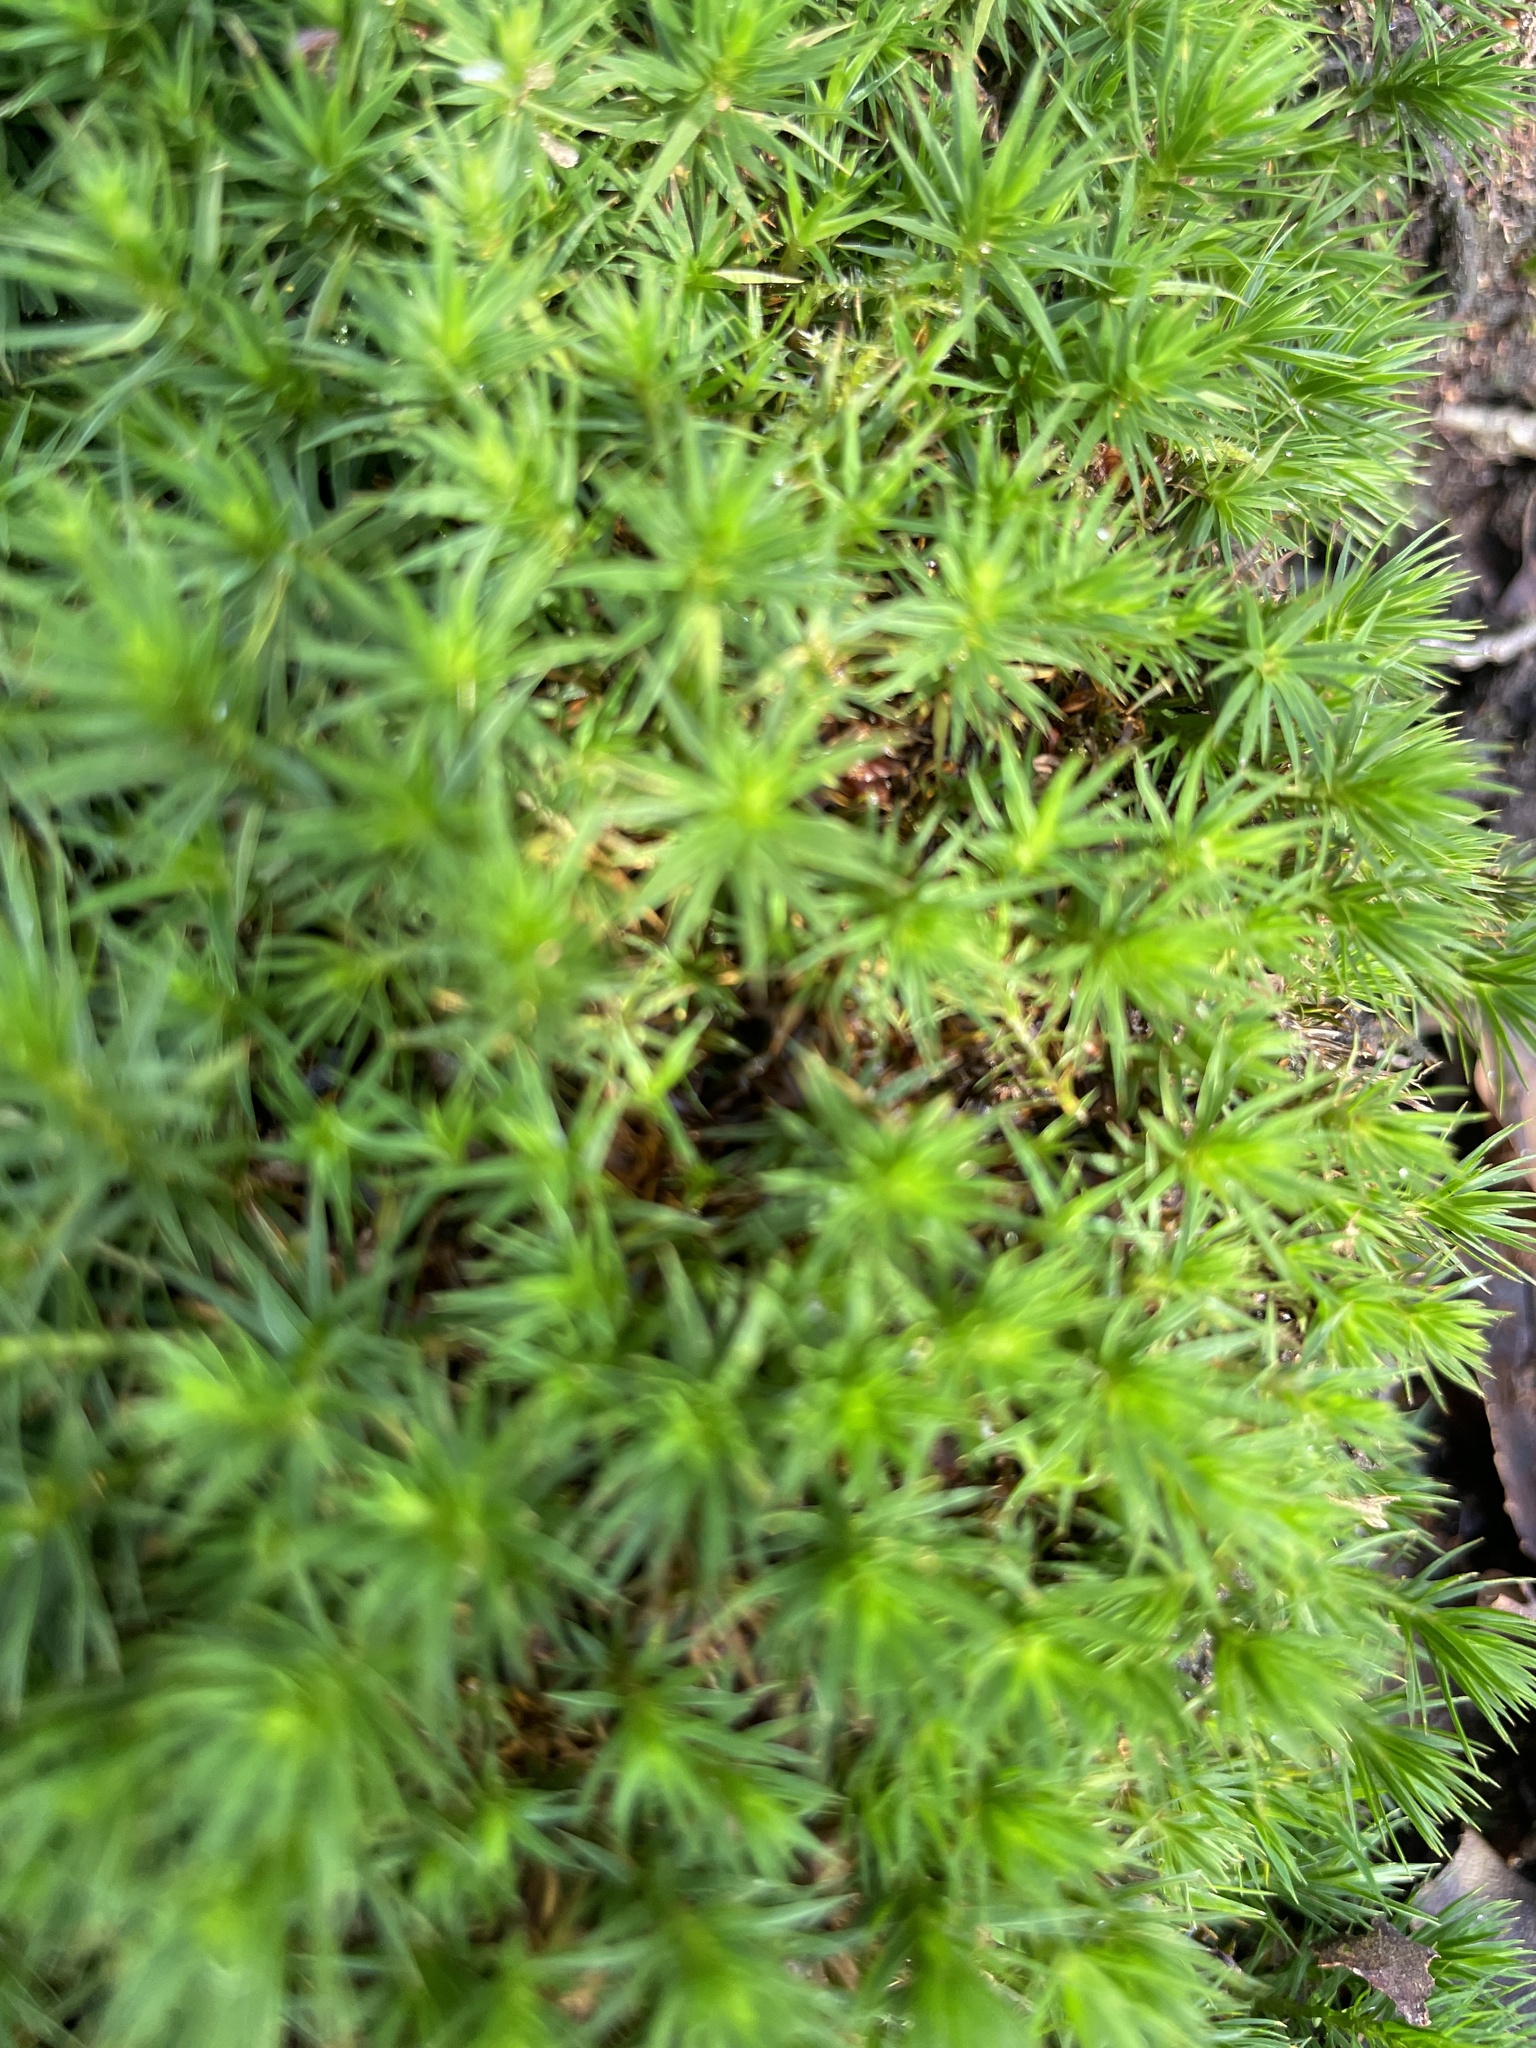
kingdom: Plantae
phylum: Bryophyta
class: Polytrichopsida
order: Polytrichales
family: Polytrichaceae
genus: Polytrichum
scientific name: Polytrichum formosum
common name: Bank haircap moss
